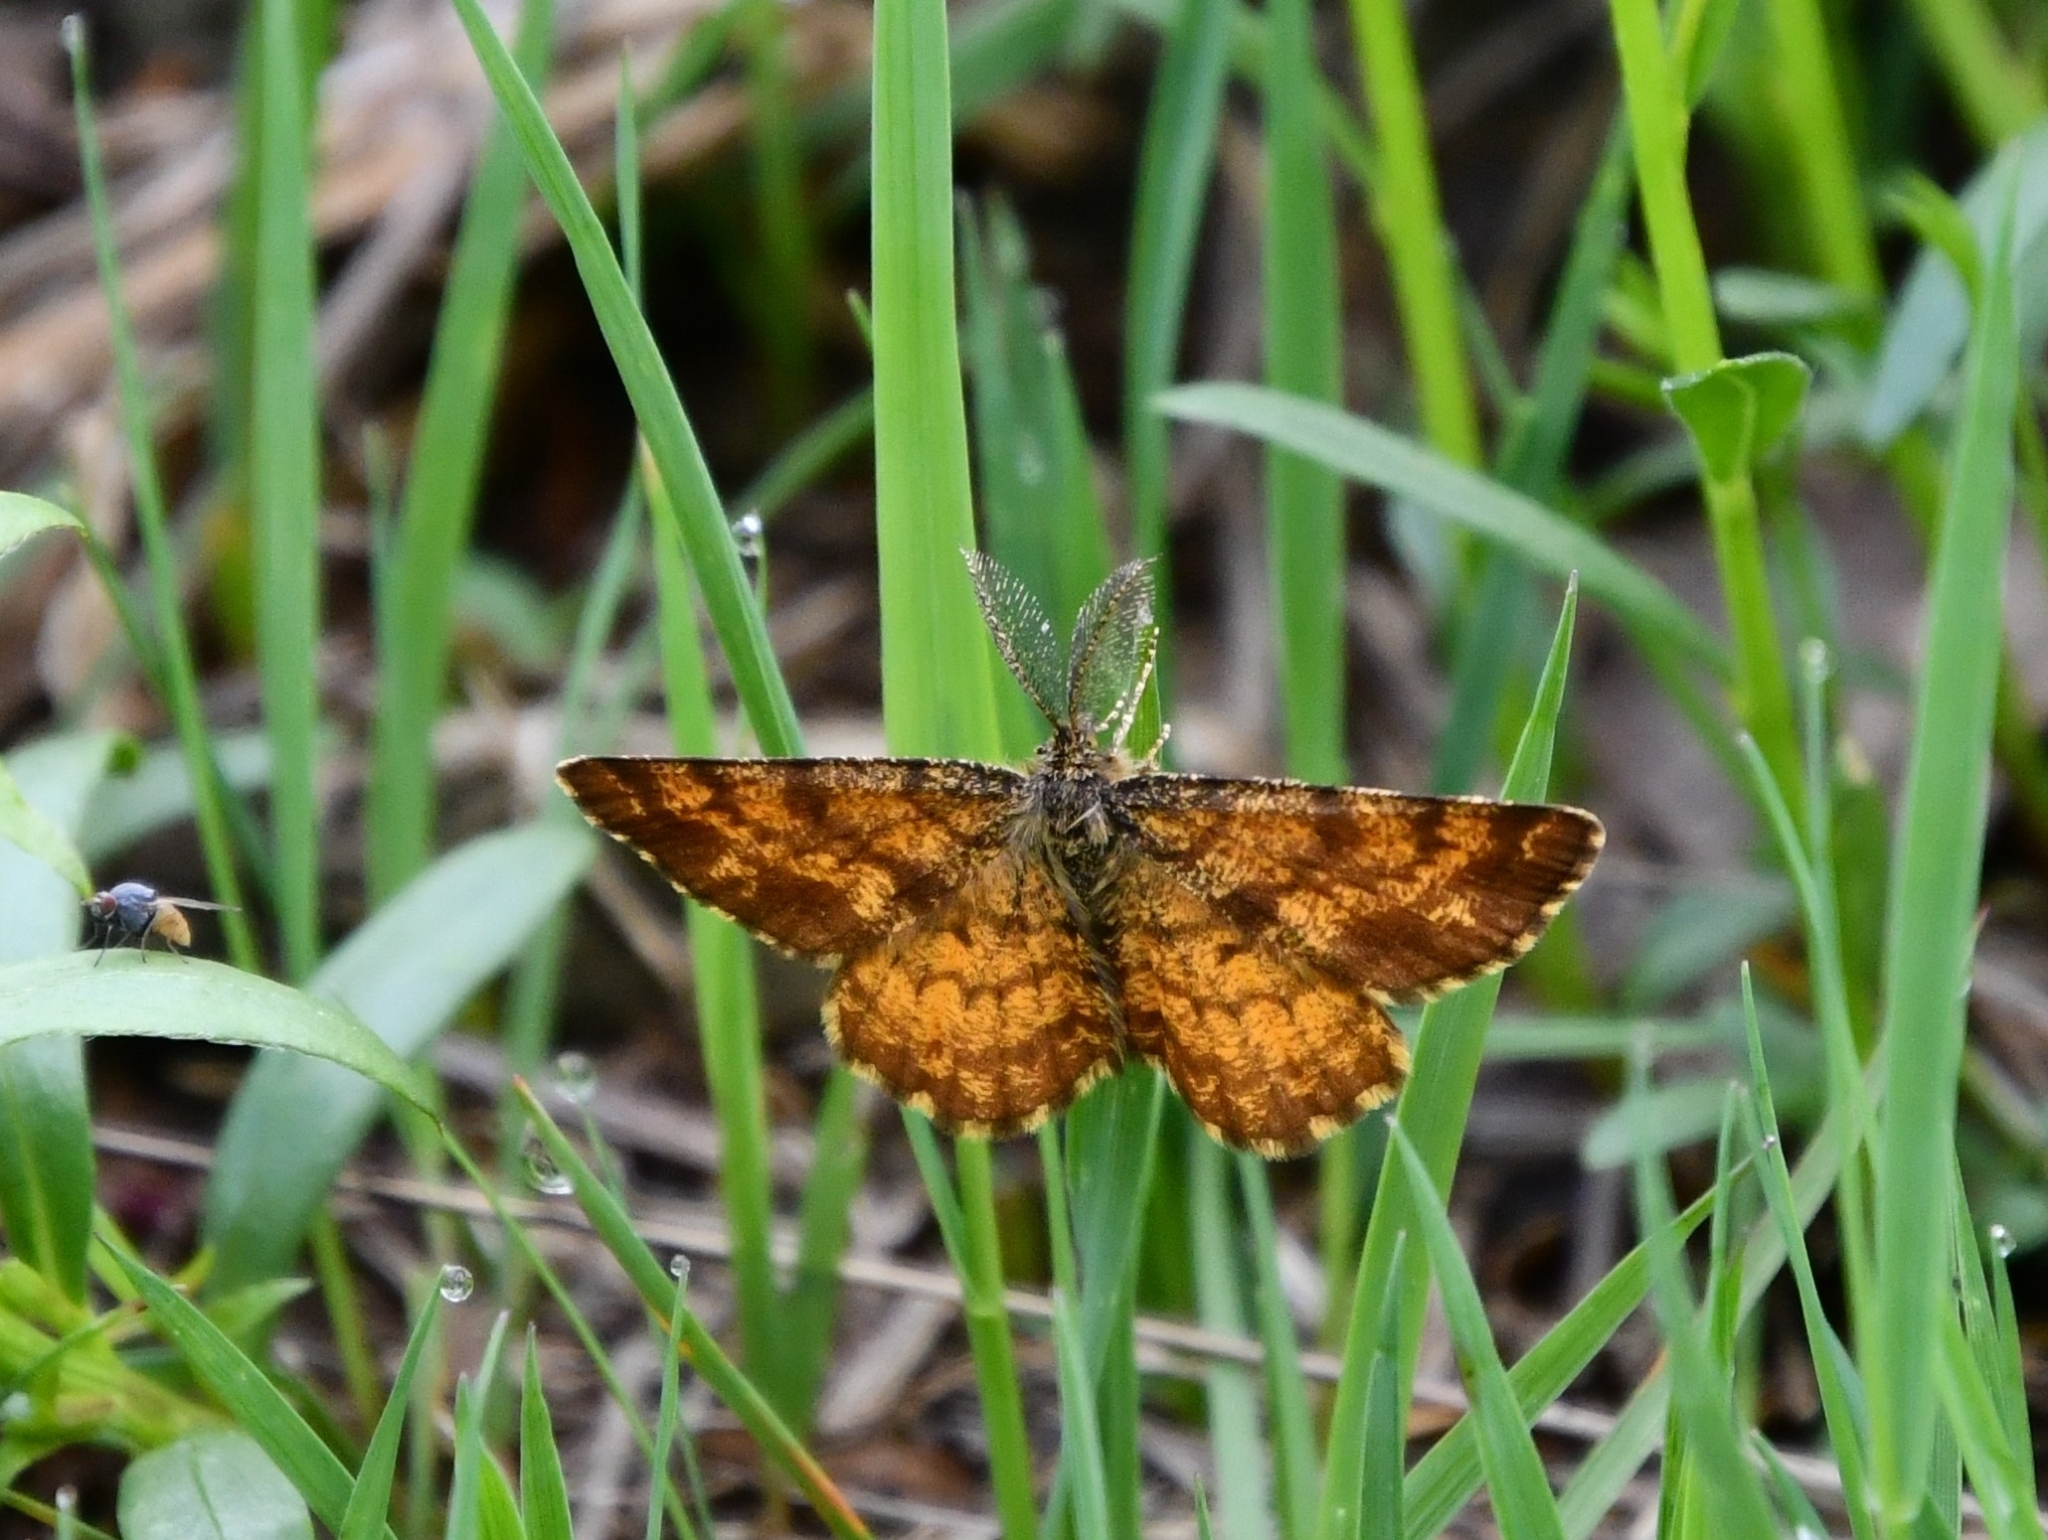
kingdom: Animalia
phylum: Arthropoda
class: Insecta
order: Lepidoptera
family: Geometridae
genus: Ematurga
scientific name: Ematurga atomaria
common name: Common heath
